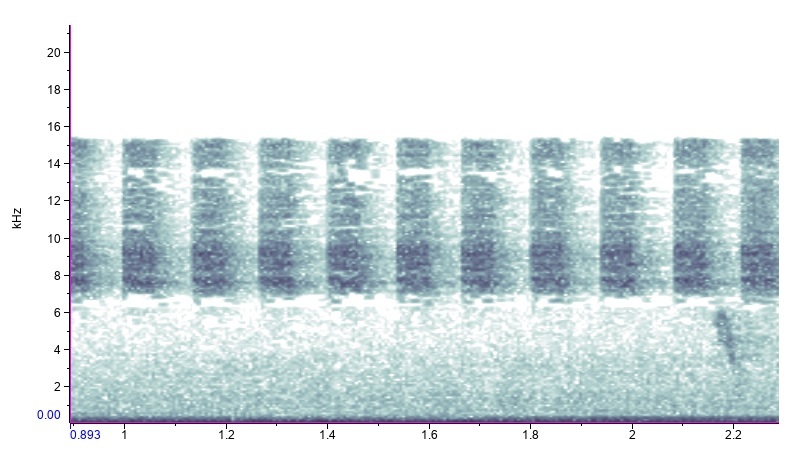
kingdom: Animalia
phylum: Arthropoda
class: Insecta
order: Hemiptera
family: Cicadidae
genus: Diceroprocta
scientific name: Diceroprocta viridifascia
